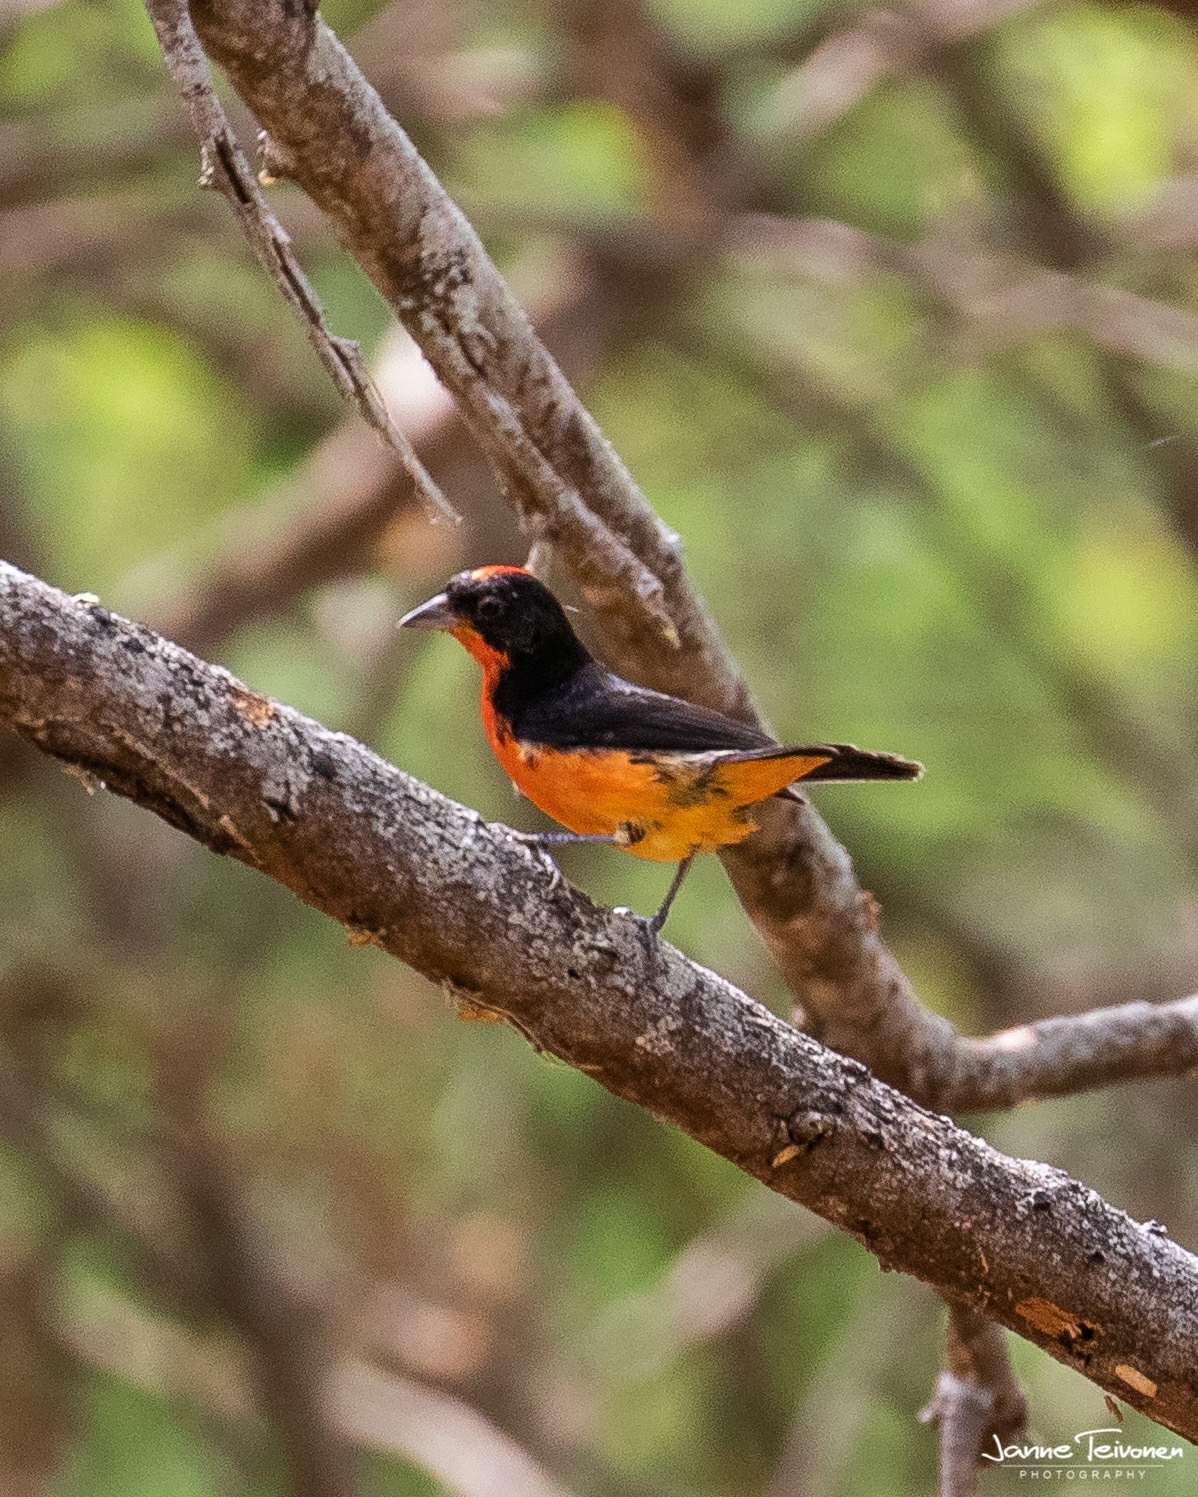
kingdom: Animalia
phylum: Chordata
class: Aves
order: Passeriformes
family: Thraupidae
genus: Rhodospingus
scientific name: Rhodospingus cruentus
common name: Crimson-breasted finch
